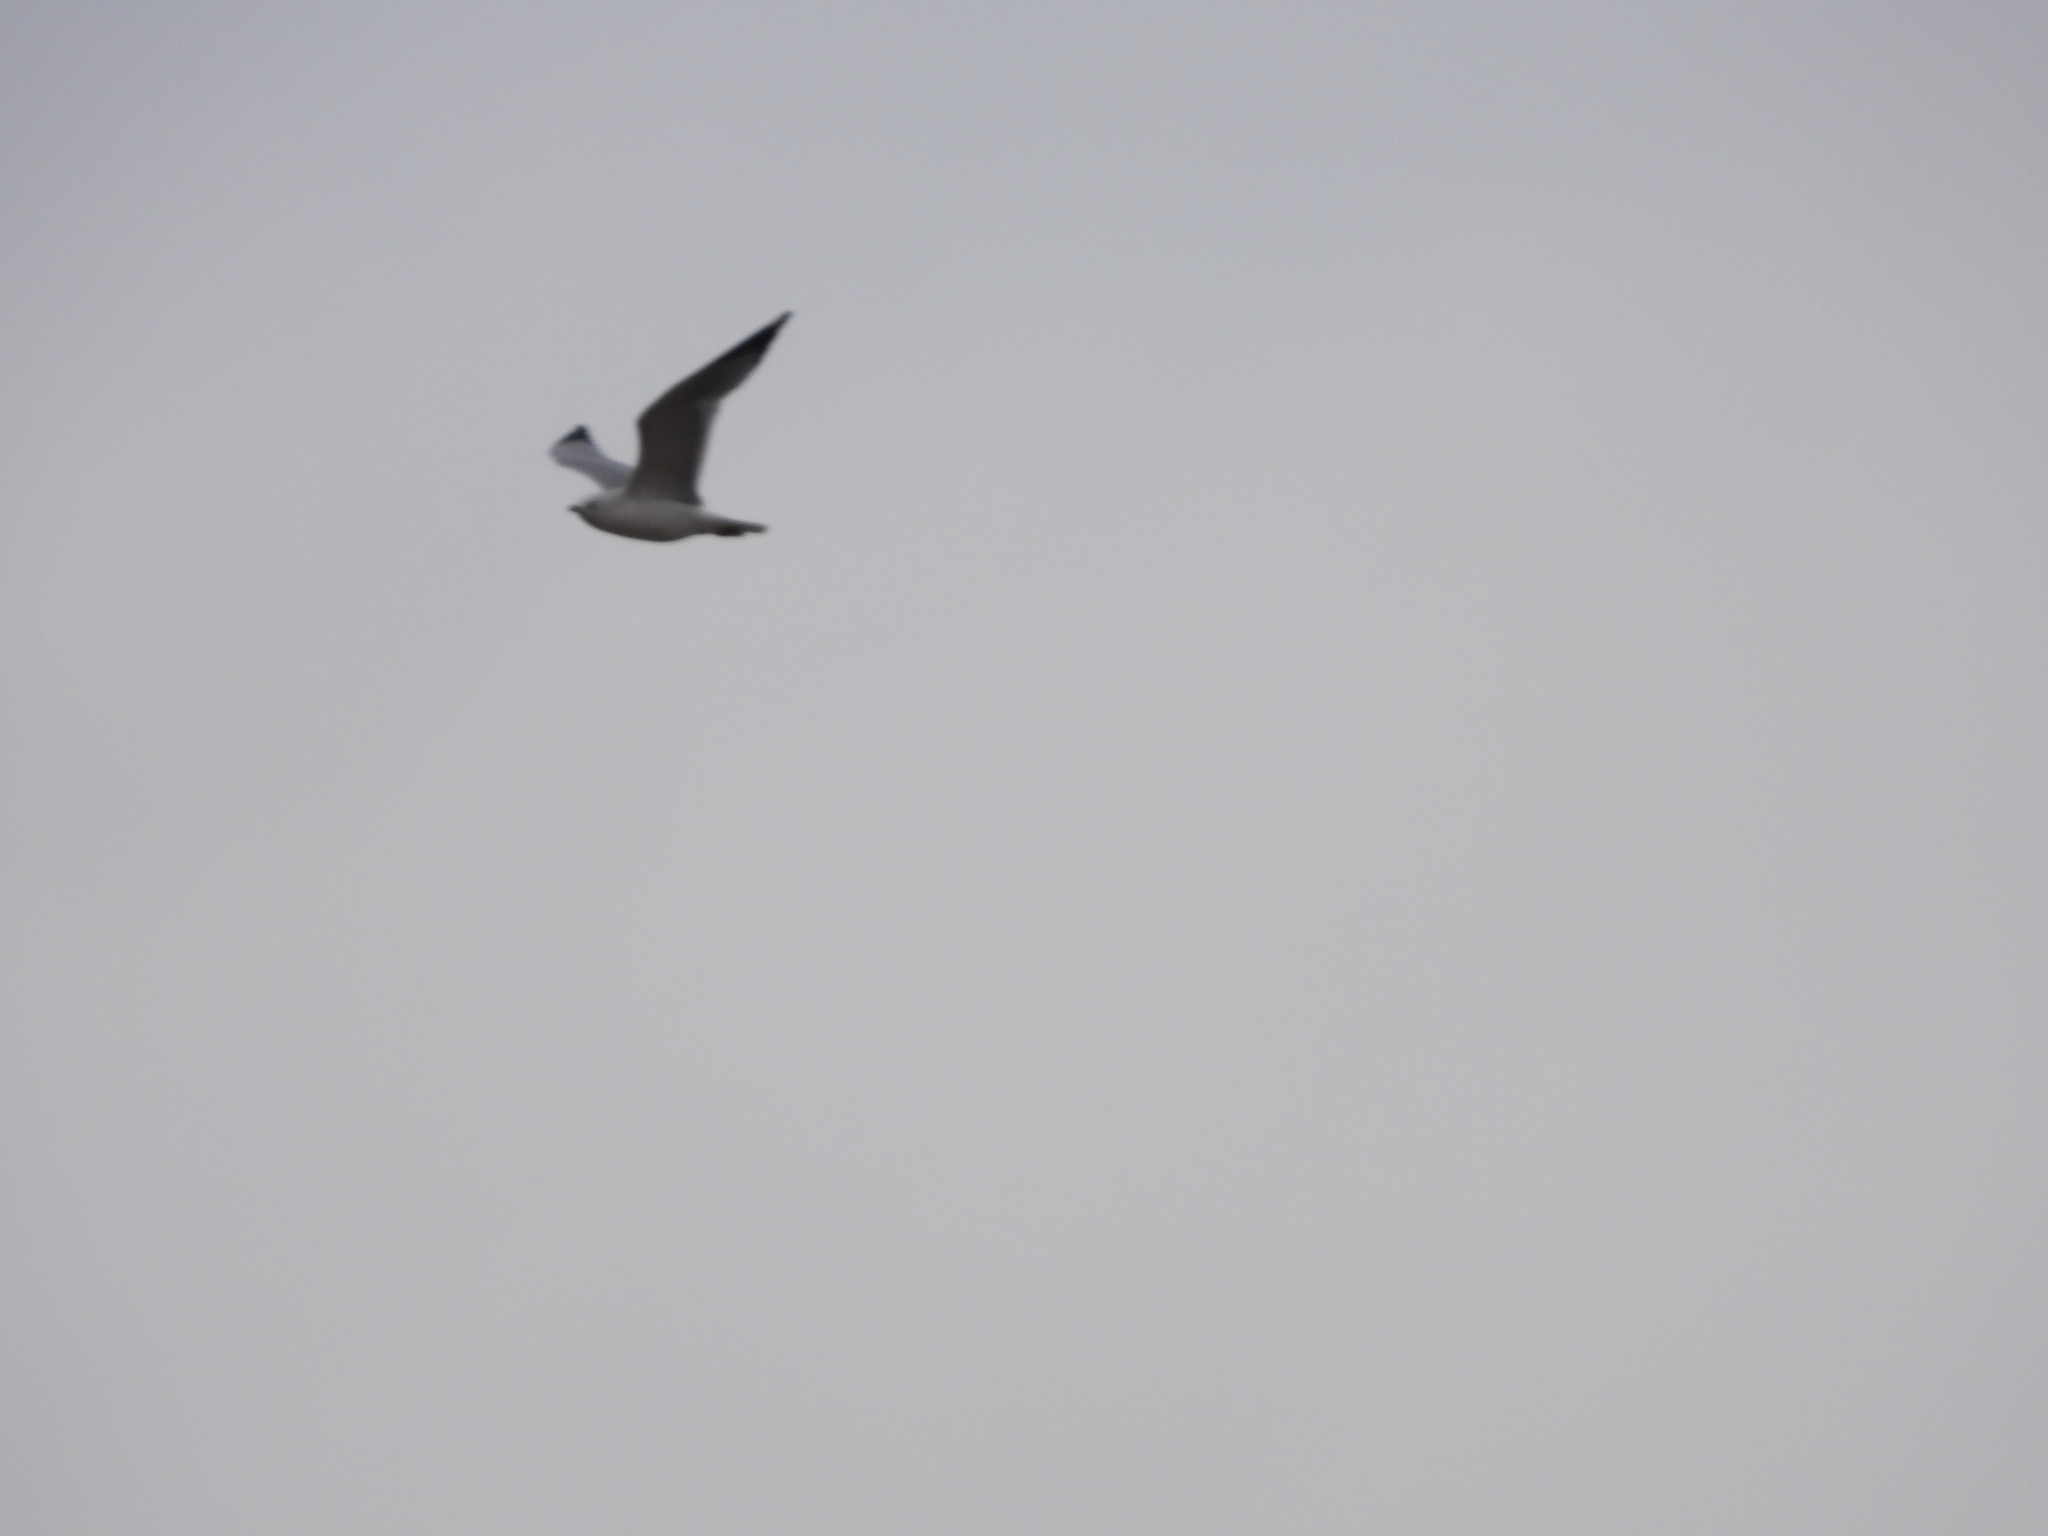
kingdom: Animalia
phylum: Chordata
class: Aves
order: Charadriiformes
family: Laridae
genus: Larus
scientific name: Larus delawarensis
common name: Ring-billed gull
